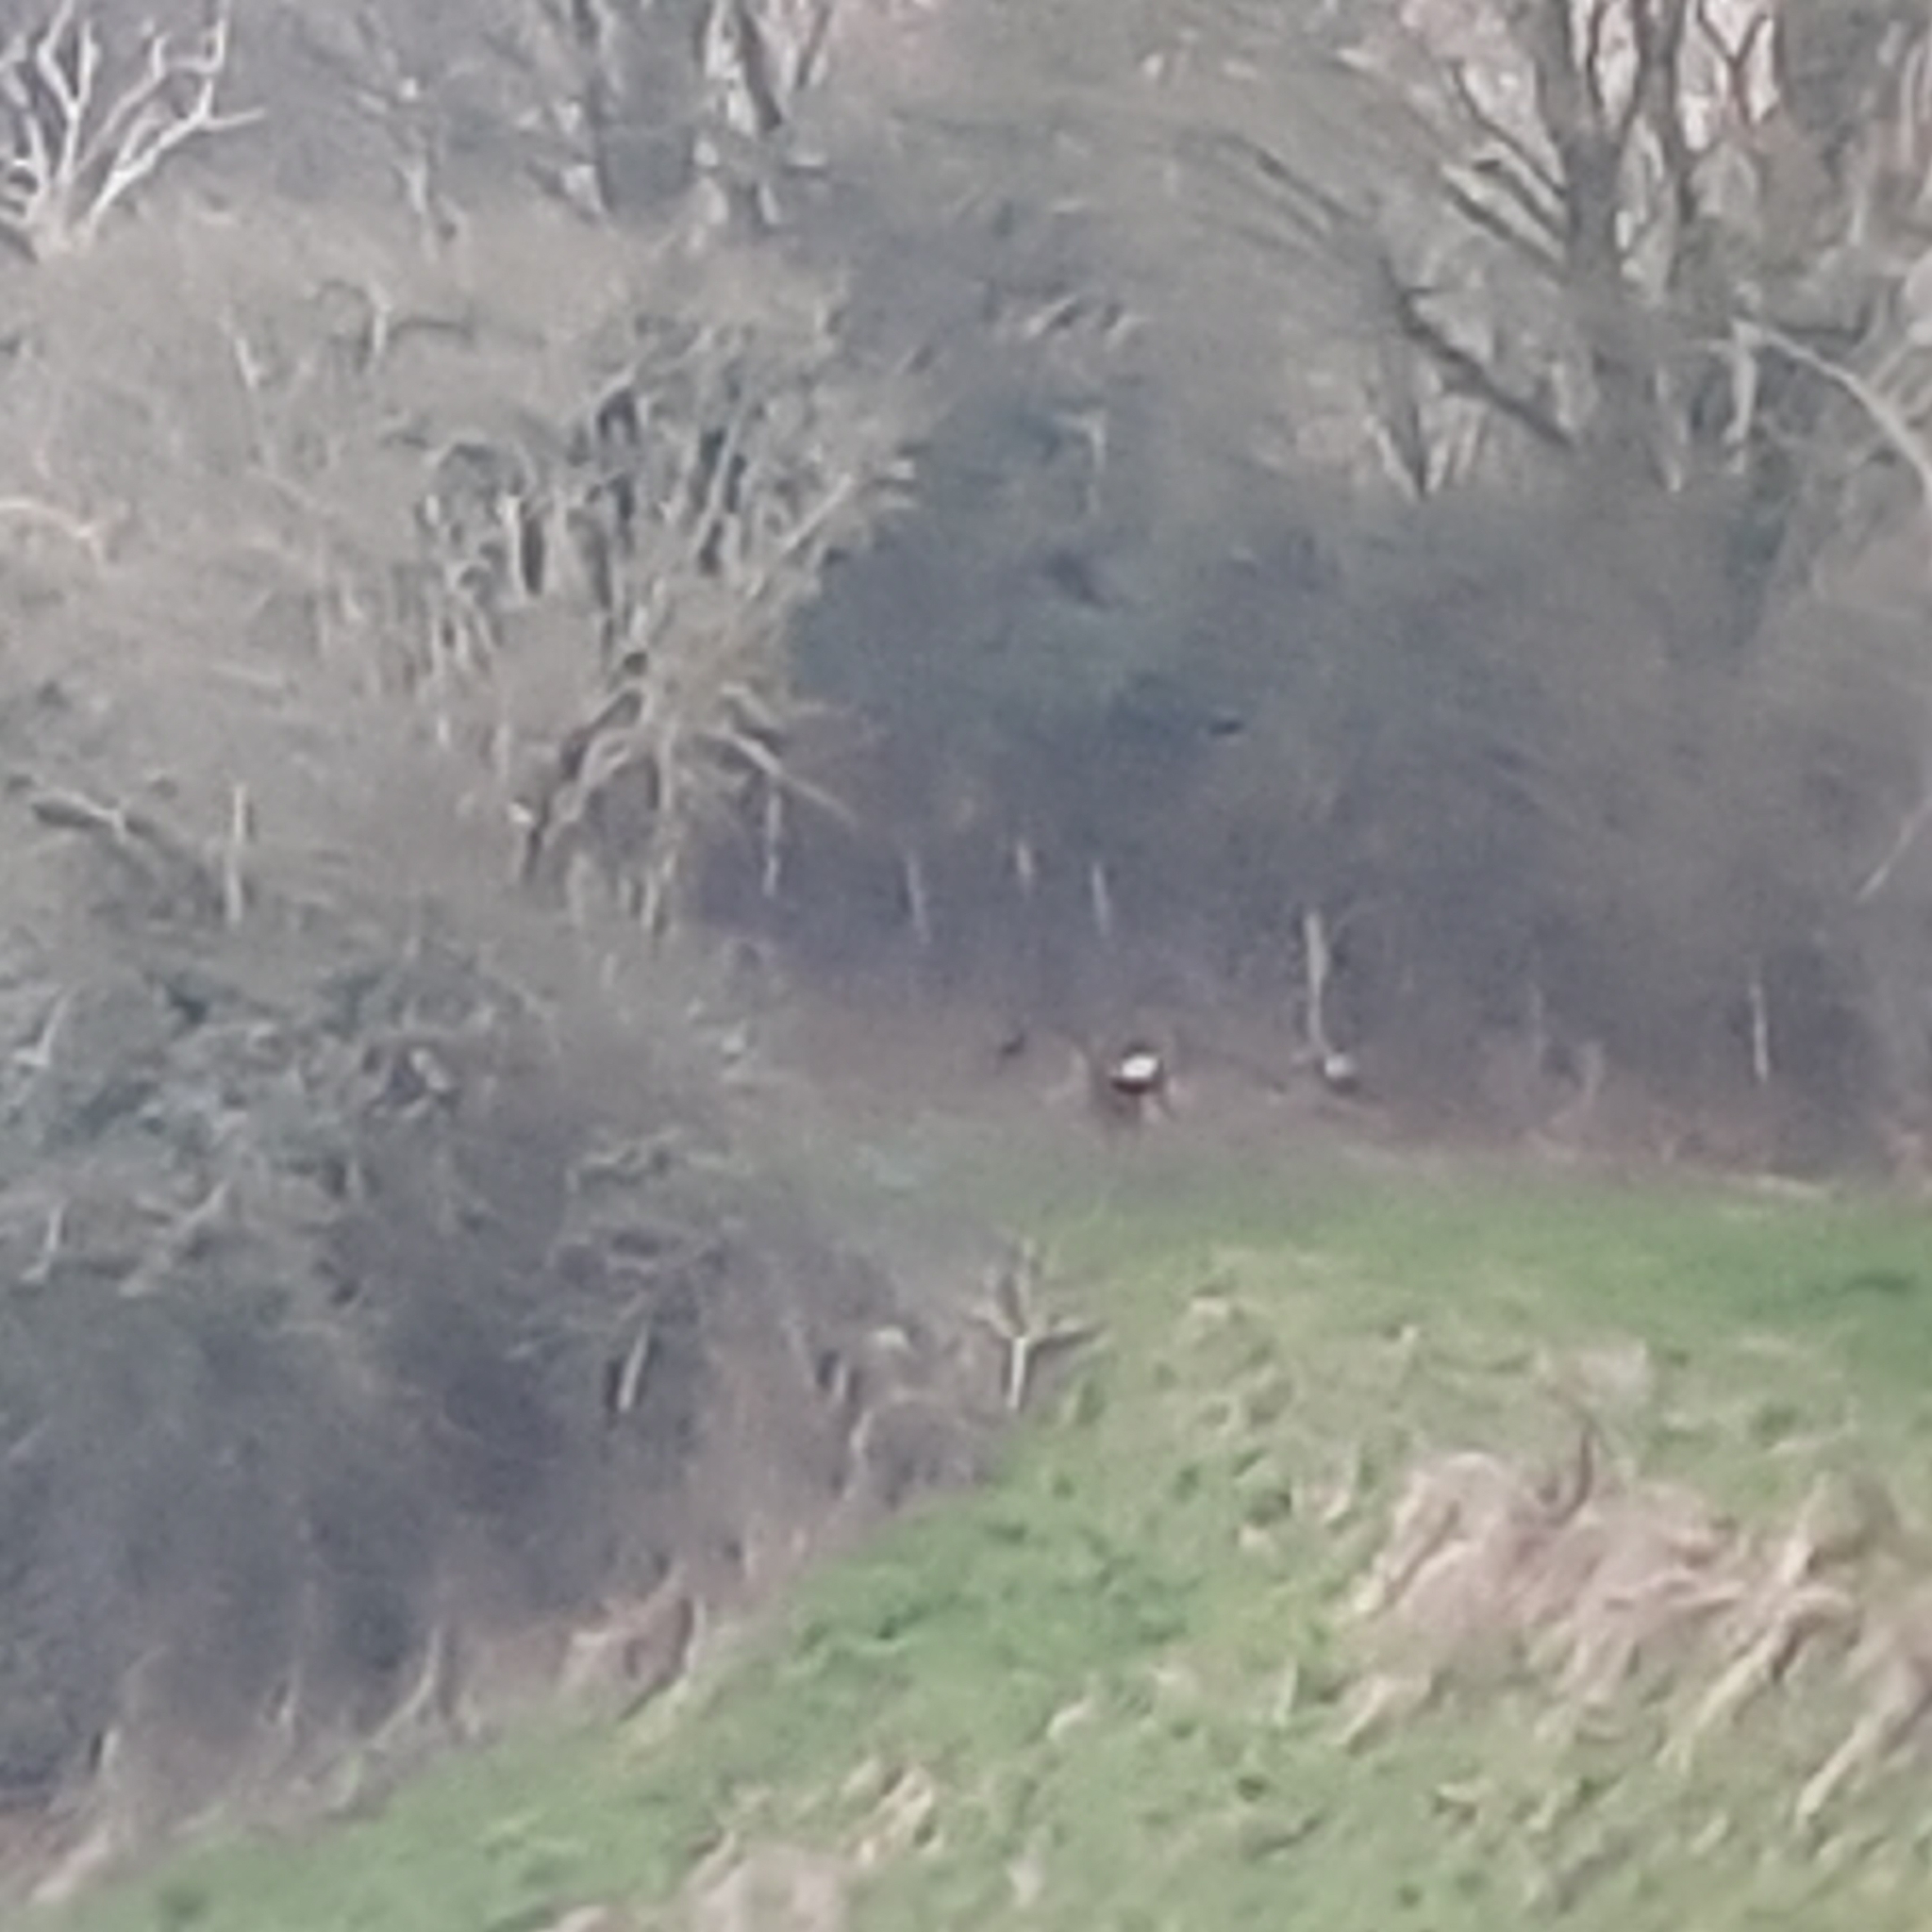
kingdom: Animalia
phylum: Chordata
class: Mammalia
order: Artiodactyla
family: Cervidae
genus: Capreolus
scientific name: Capreolus capreolus
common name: Western roe deer
